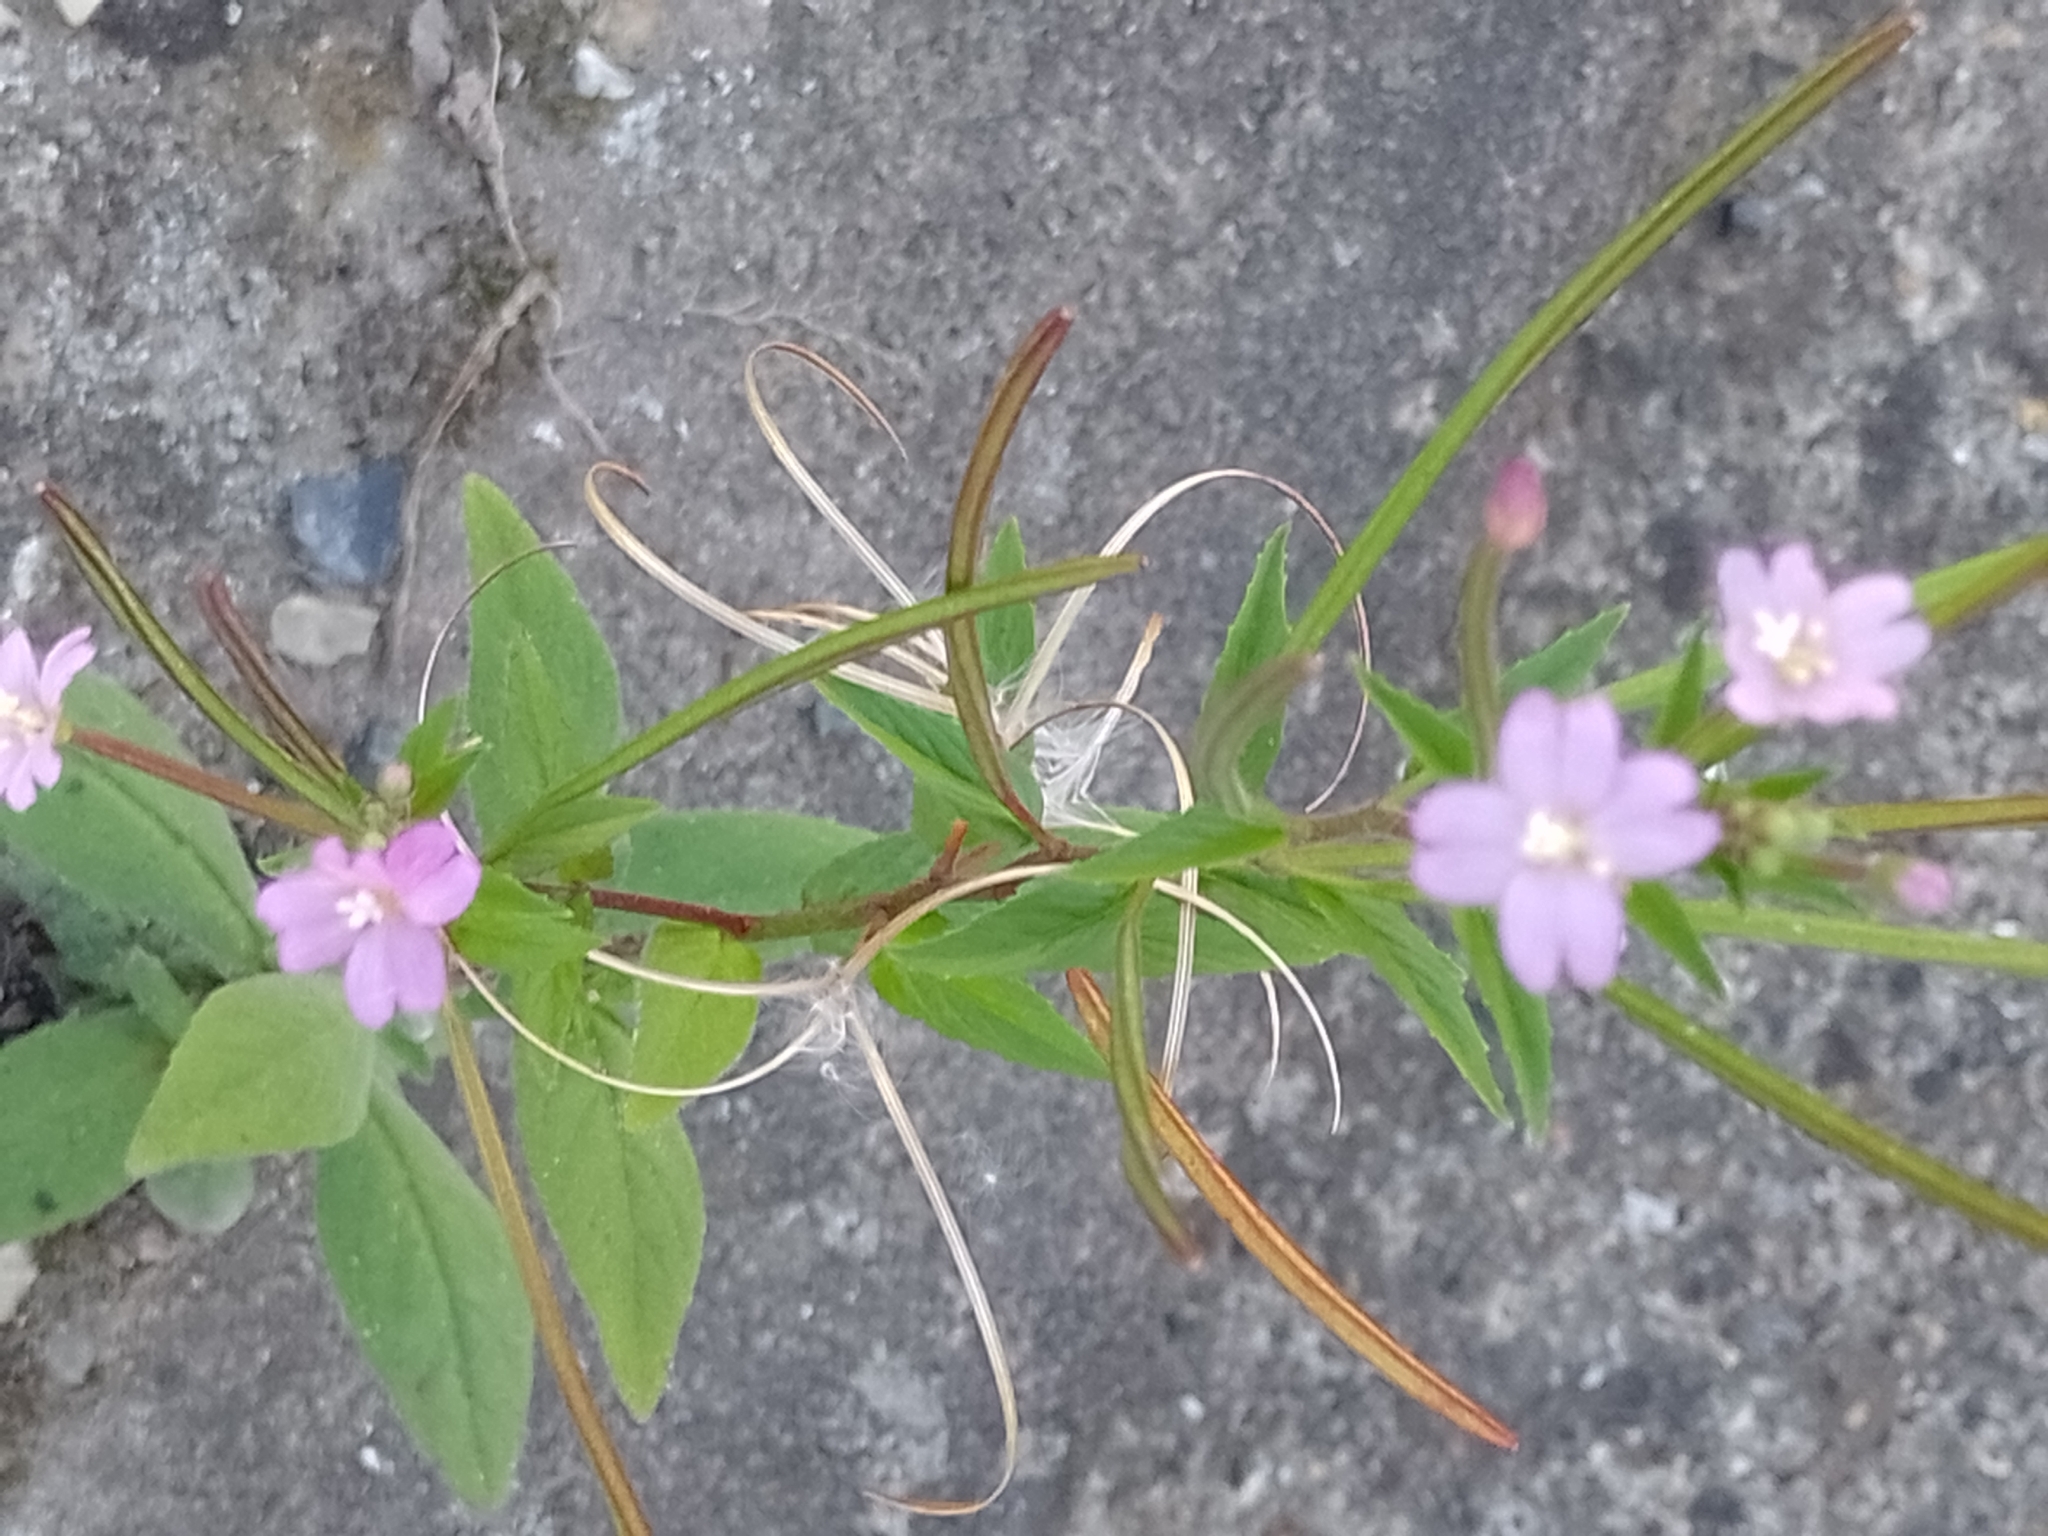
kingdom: Plantae
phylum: Tracheophyta
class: Magnoliopsida
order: Myrtales
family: Onagraceae
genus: Epilobium
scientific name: Epilobium ciliatum
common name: American willowherb
